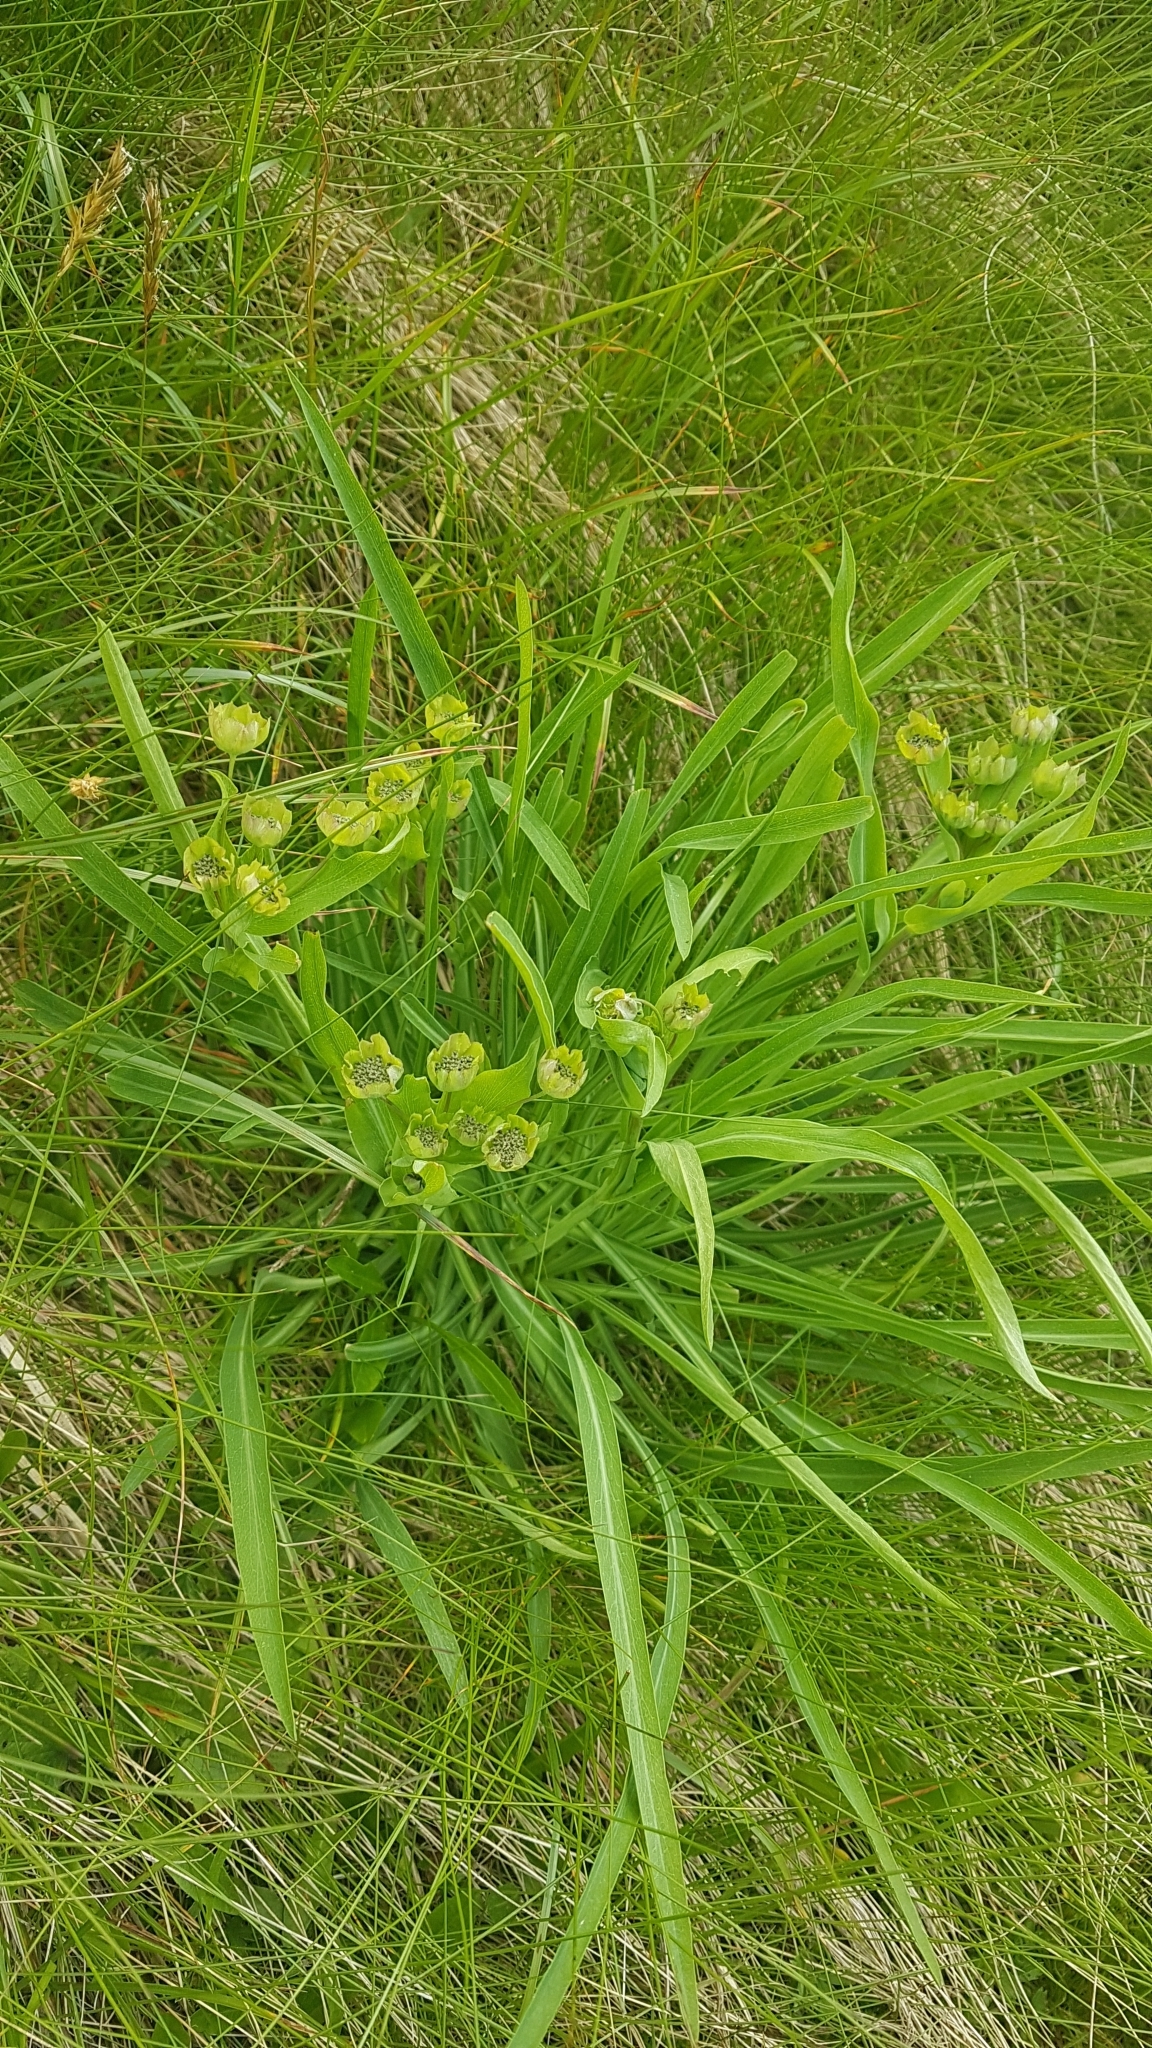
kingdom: Plantae
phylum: Tracheophyta
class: Magnoliopsida
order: Apiales
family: Apiaceae
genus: Bupleurum
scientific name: Bupleurum stellatum
